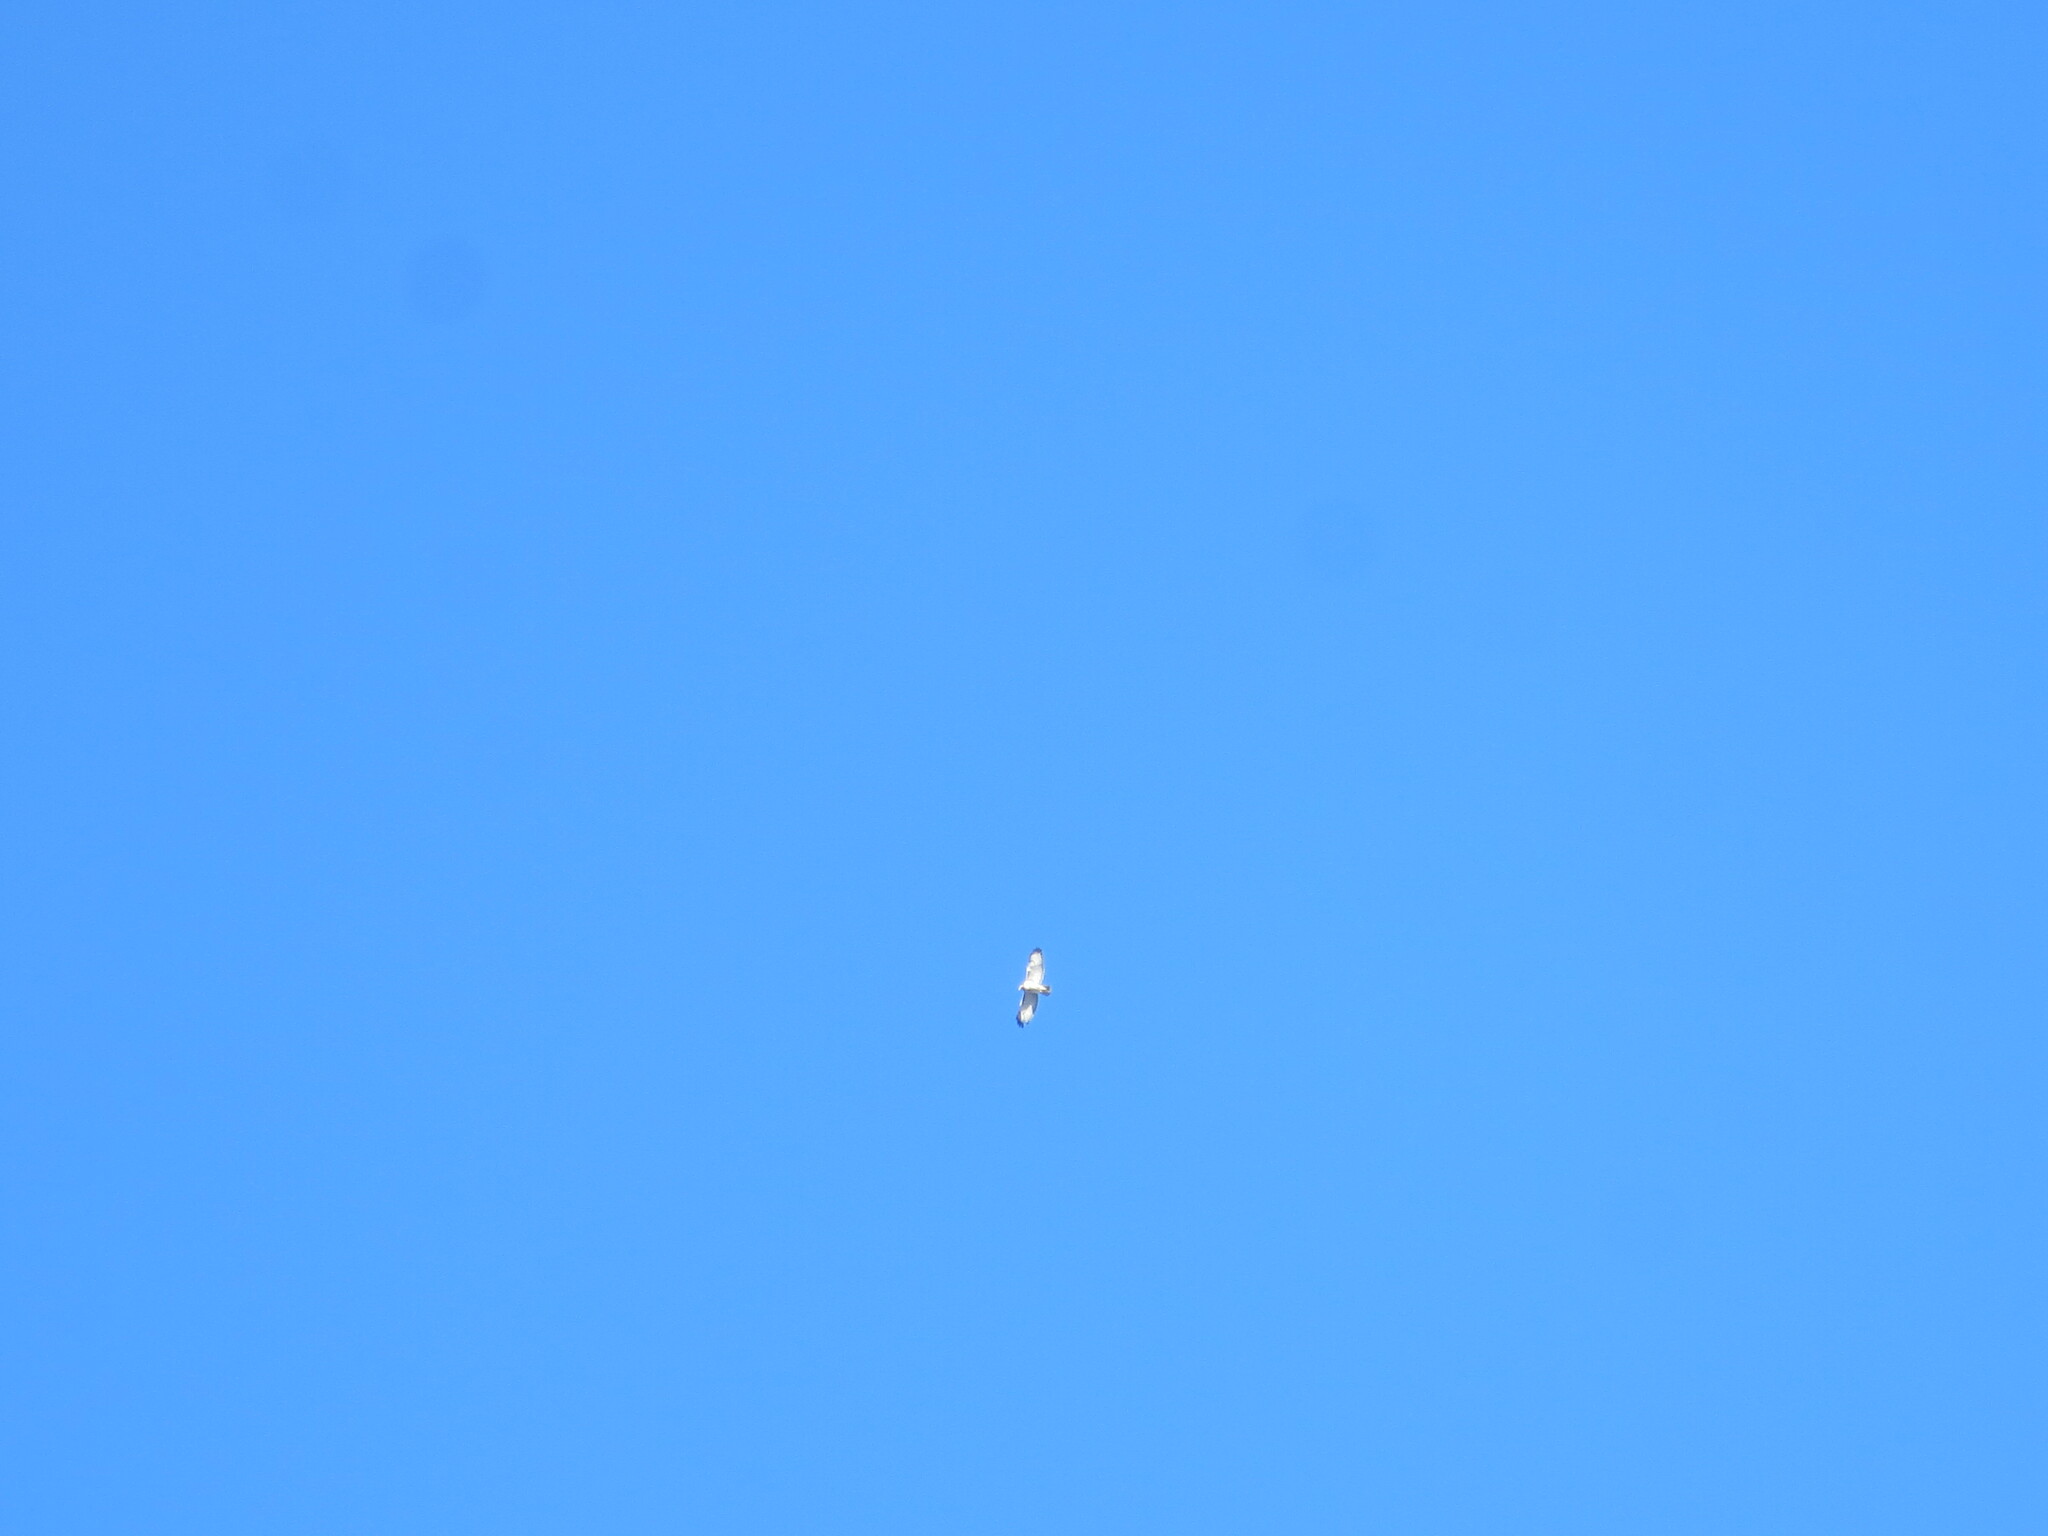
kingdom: Animalia
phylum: Chordata
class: Aves
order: Accipitriformes
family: Accipitridae
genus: Buteo
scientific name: Buteo jamaicensis
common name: Red-tailed hawk
